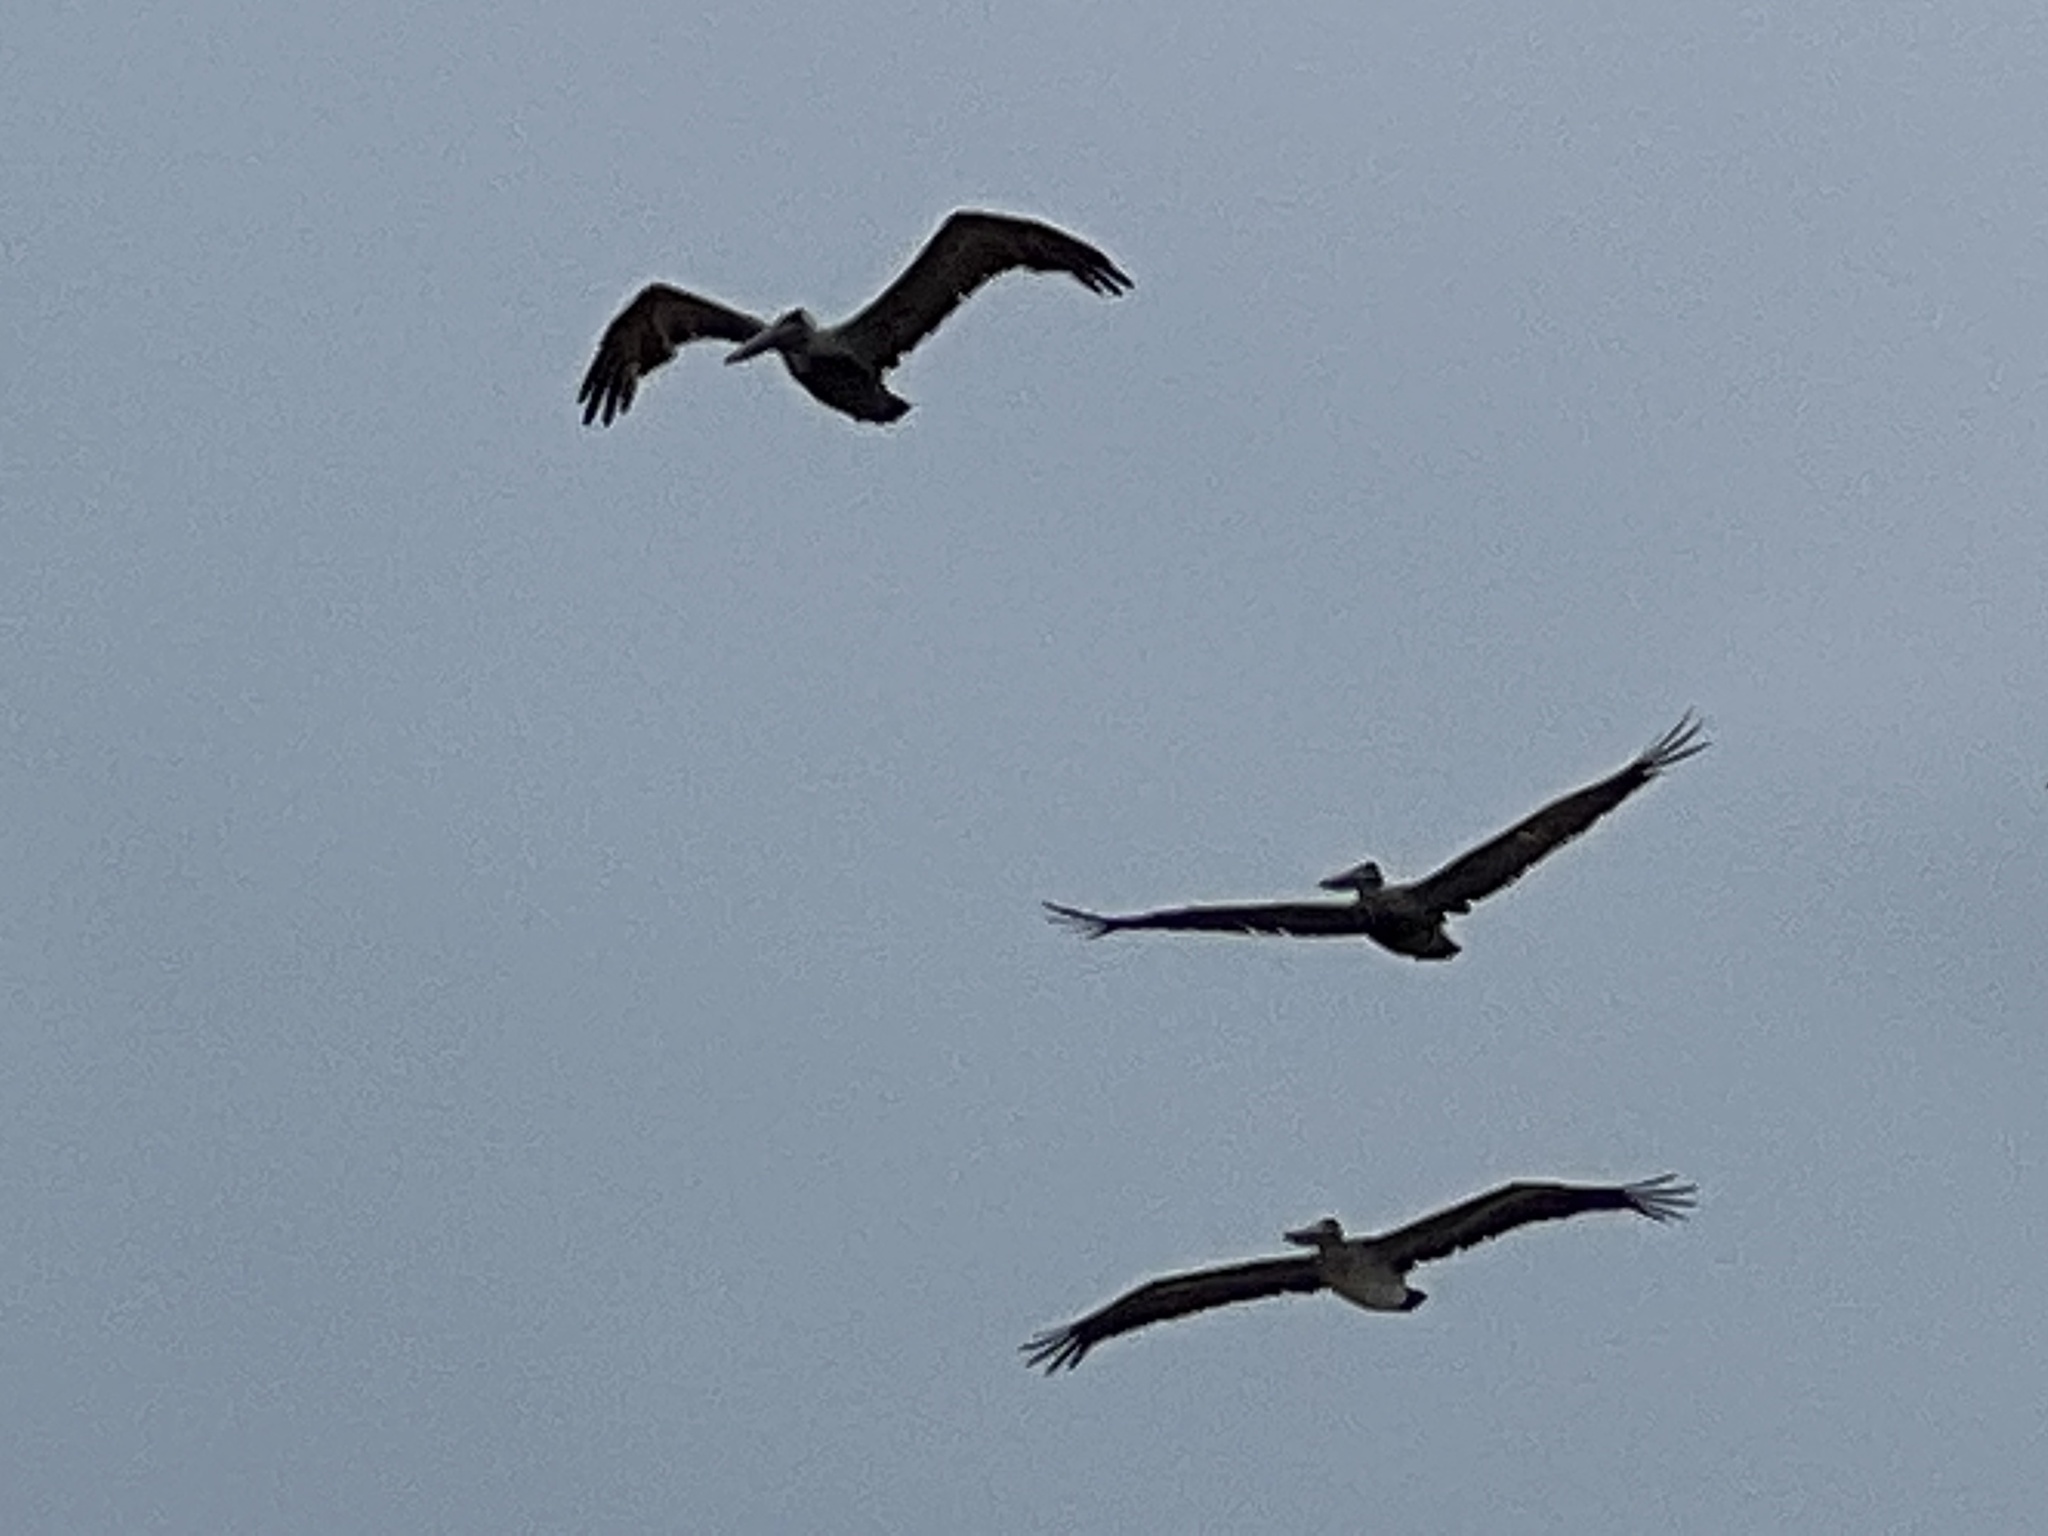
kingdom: Animalia
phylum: Chordata
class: Aves
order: Pelecaniformes
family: Pelecanidae
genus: Pelecanus
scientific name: Pelecanus occidentalis
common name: Brown pelican
